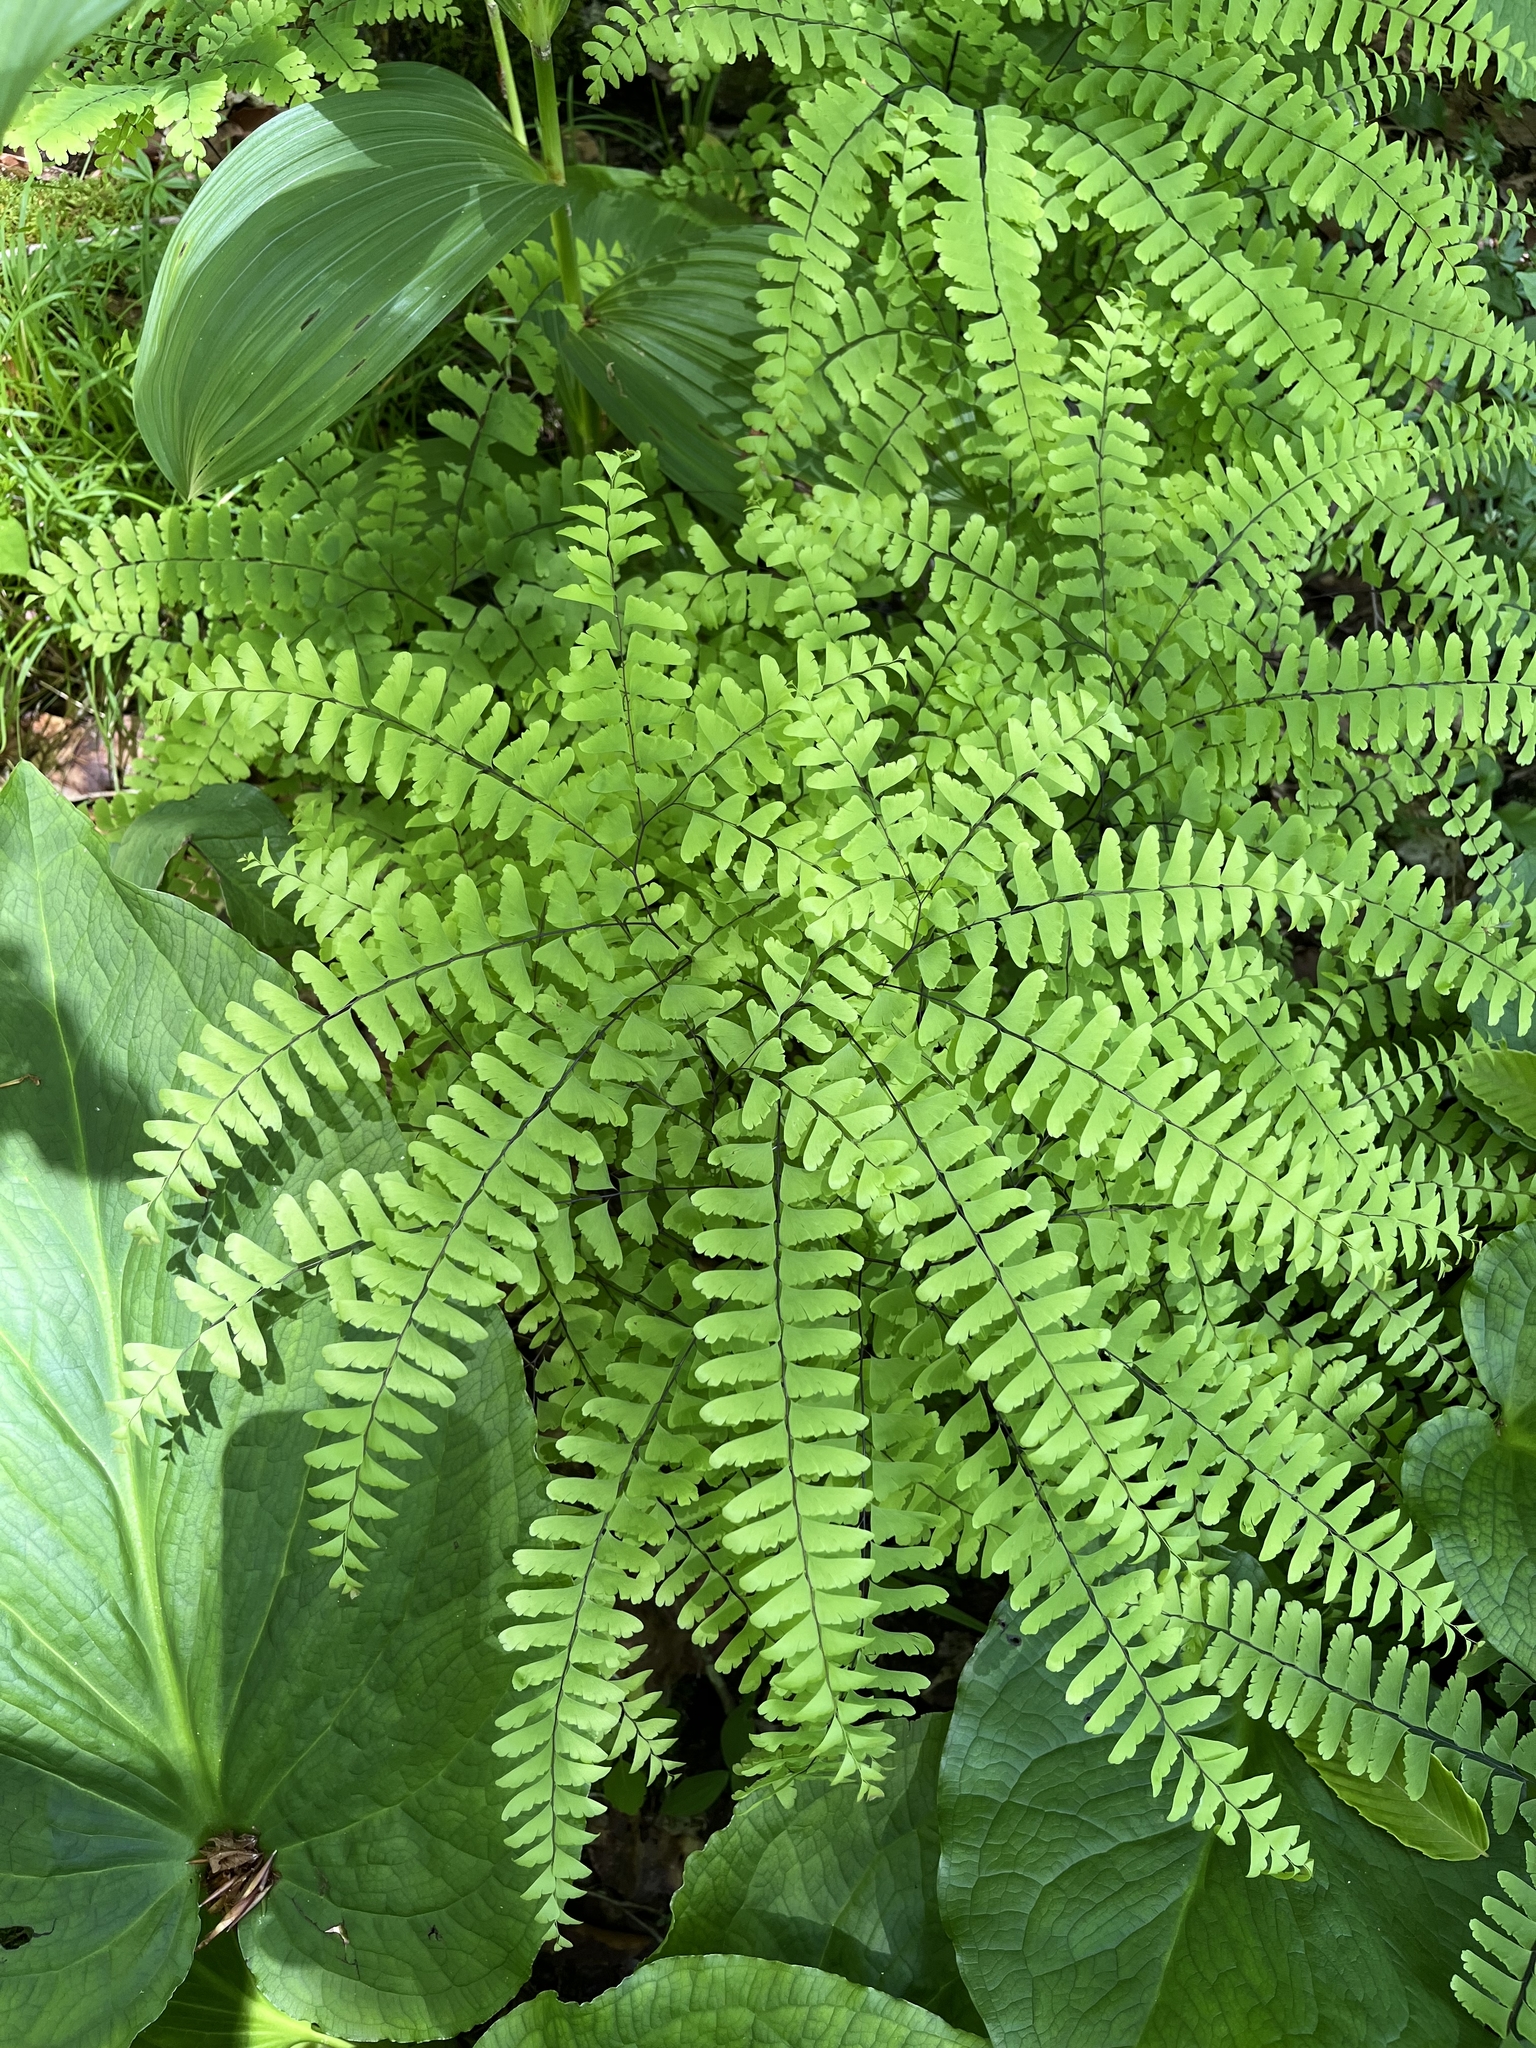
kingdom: Plantae
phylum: Tracheophyta
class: Polypodiopsida
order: Polypodiales
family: Pteridaceae
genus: Adiantum
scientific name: Adiantum pedatum
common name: Five-finger fern
